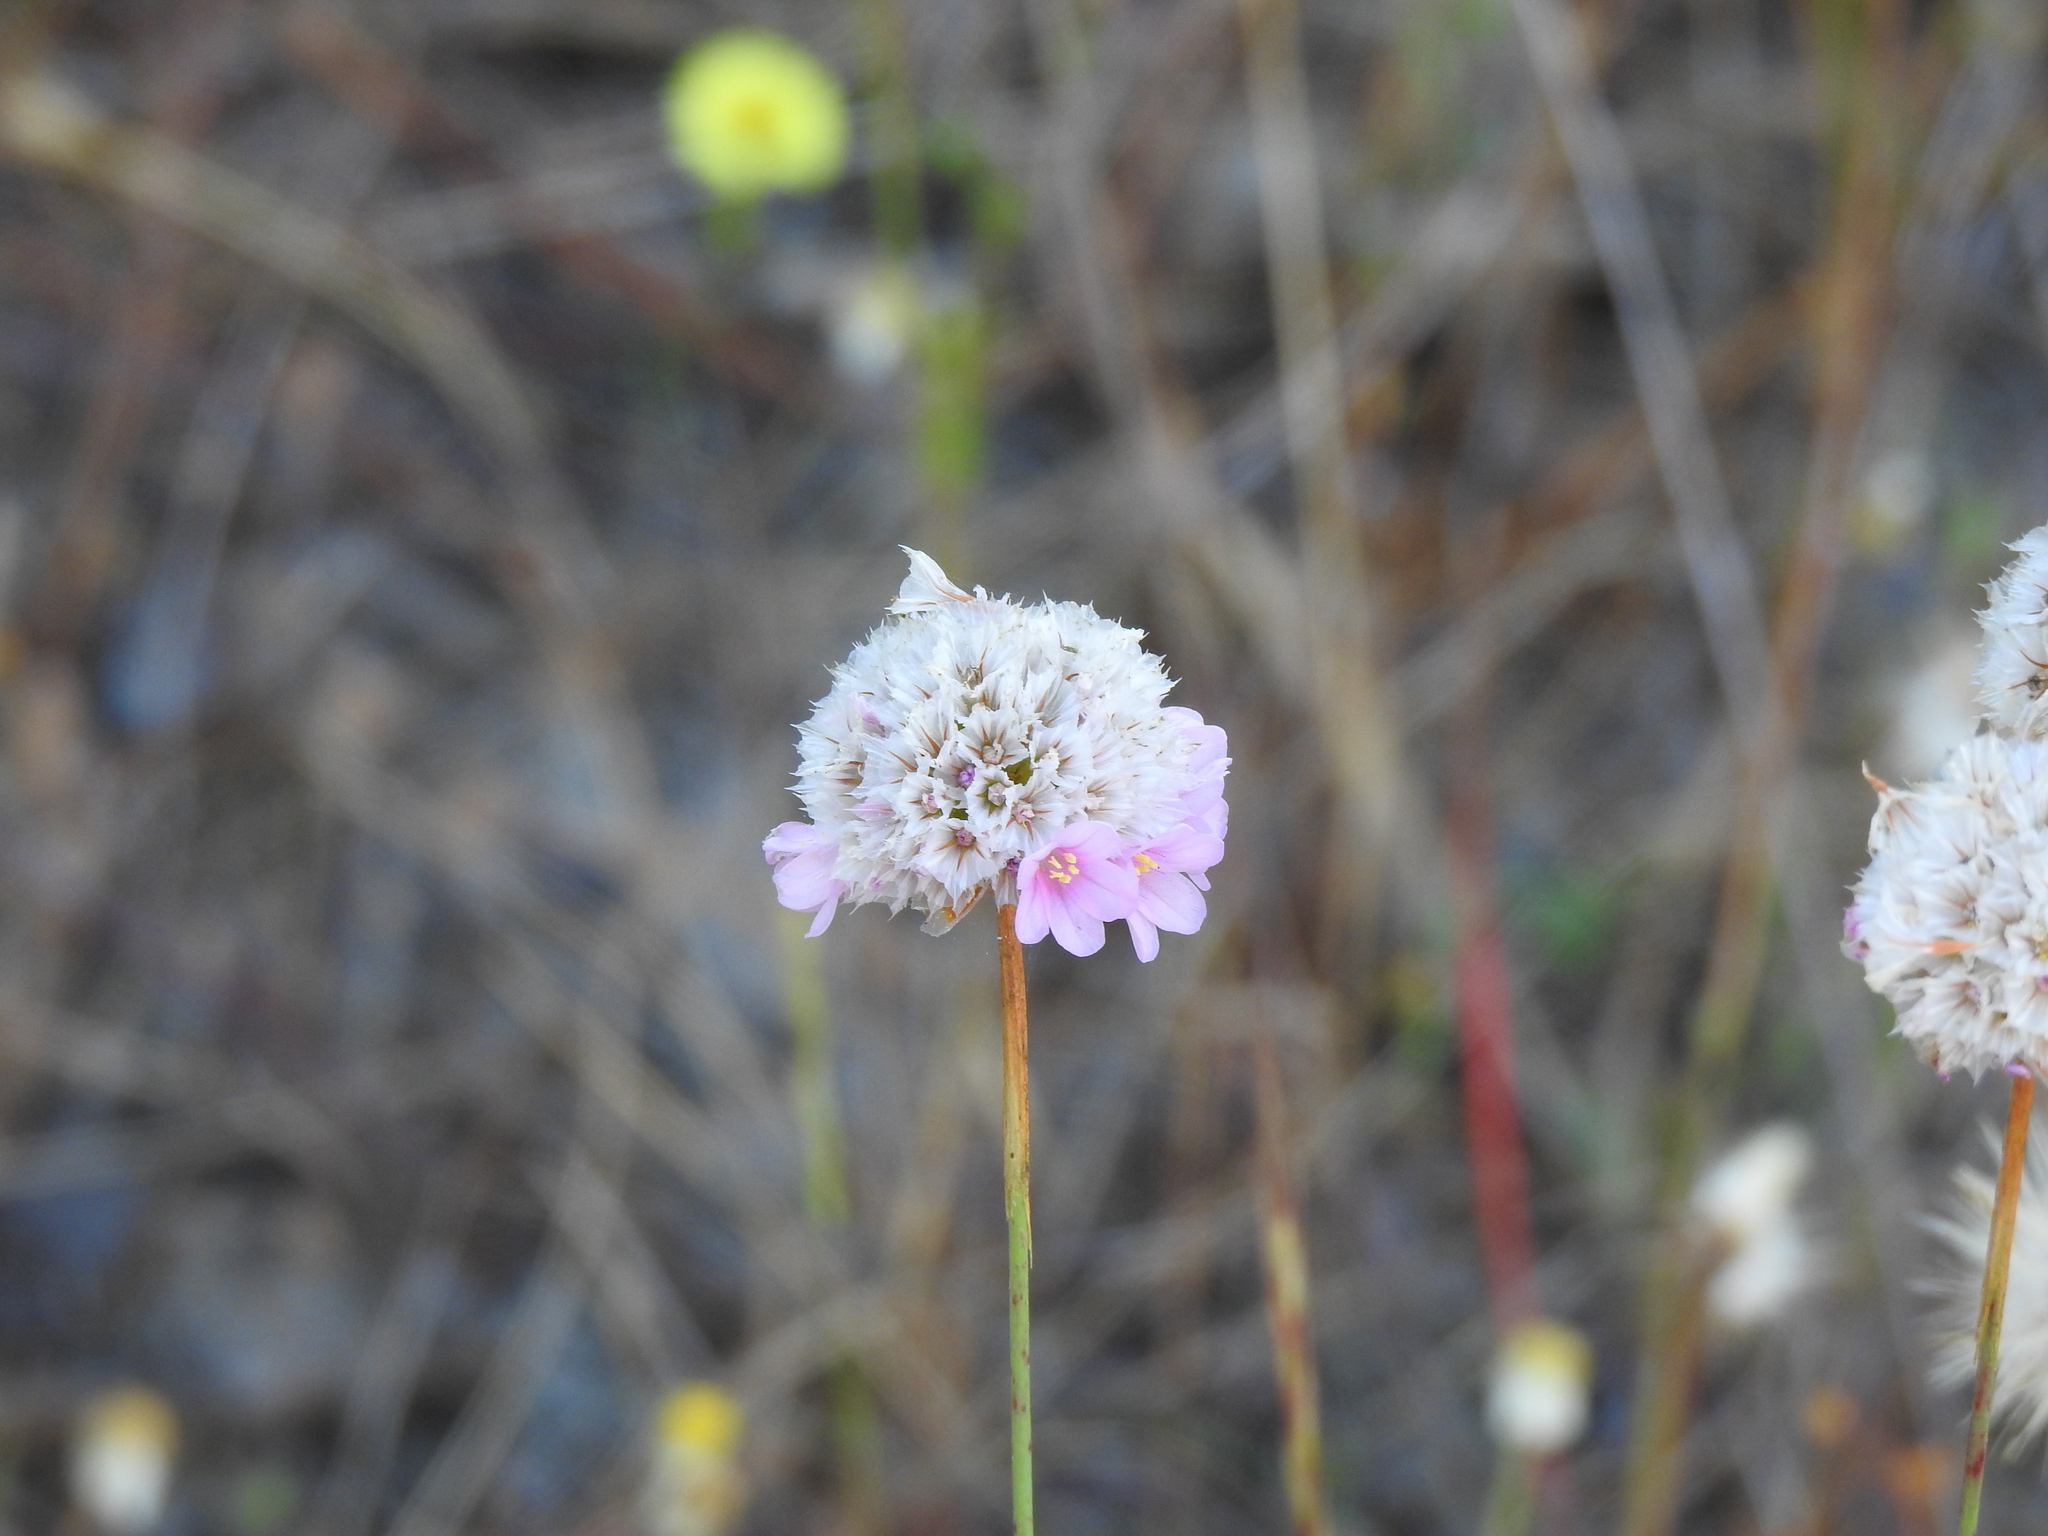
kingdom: Plantae
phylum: Tracheophyta
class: Magnoliopsida
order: Caryophyllales
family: Plumbaginaceae
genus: Armeria
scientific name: Armeria macrophylla
